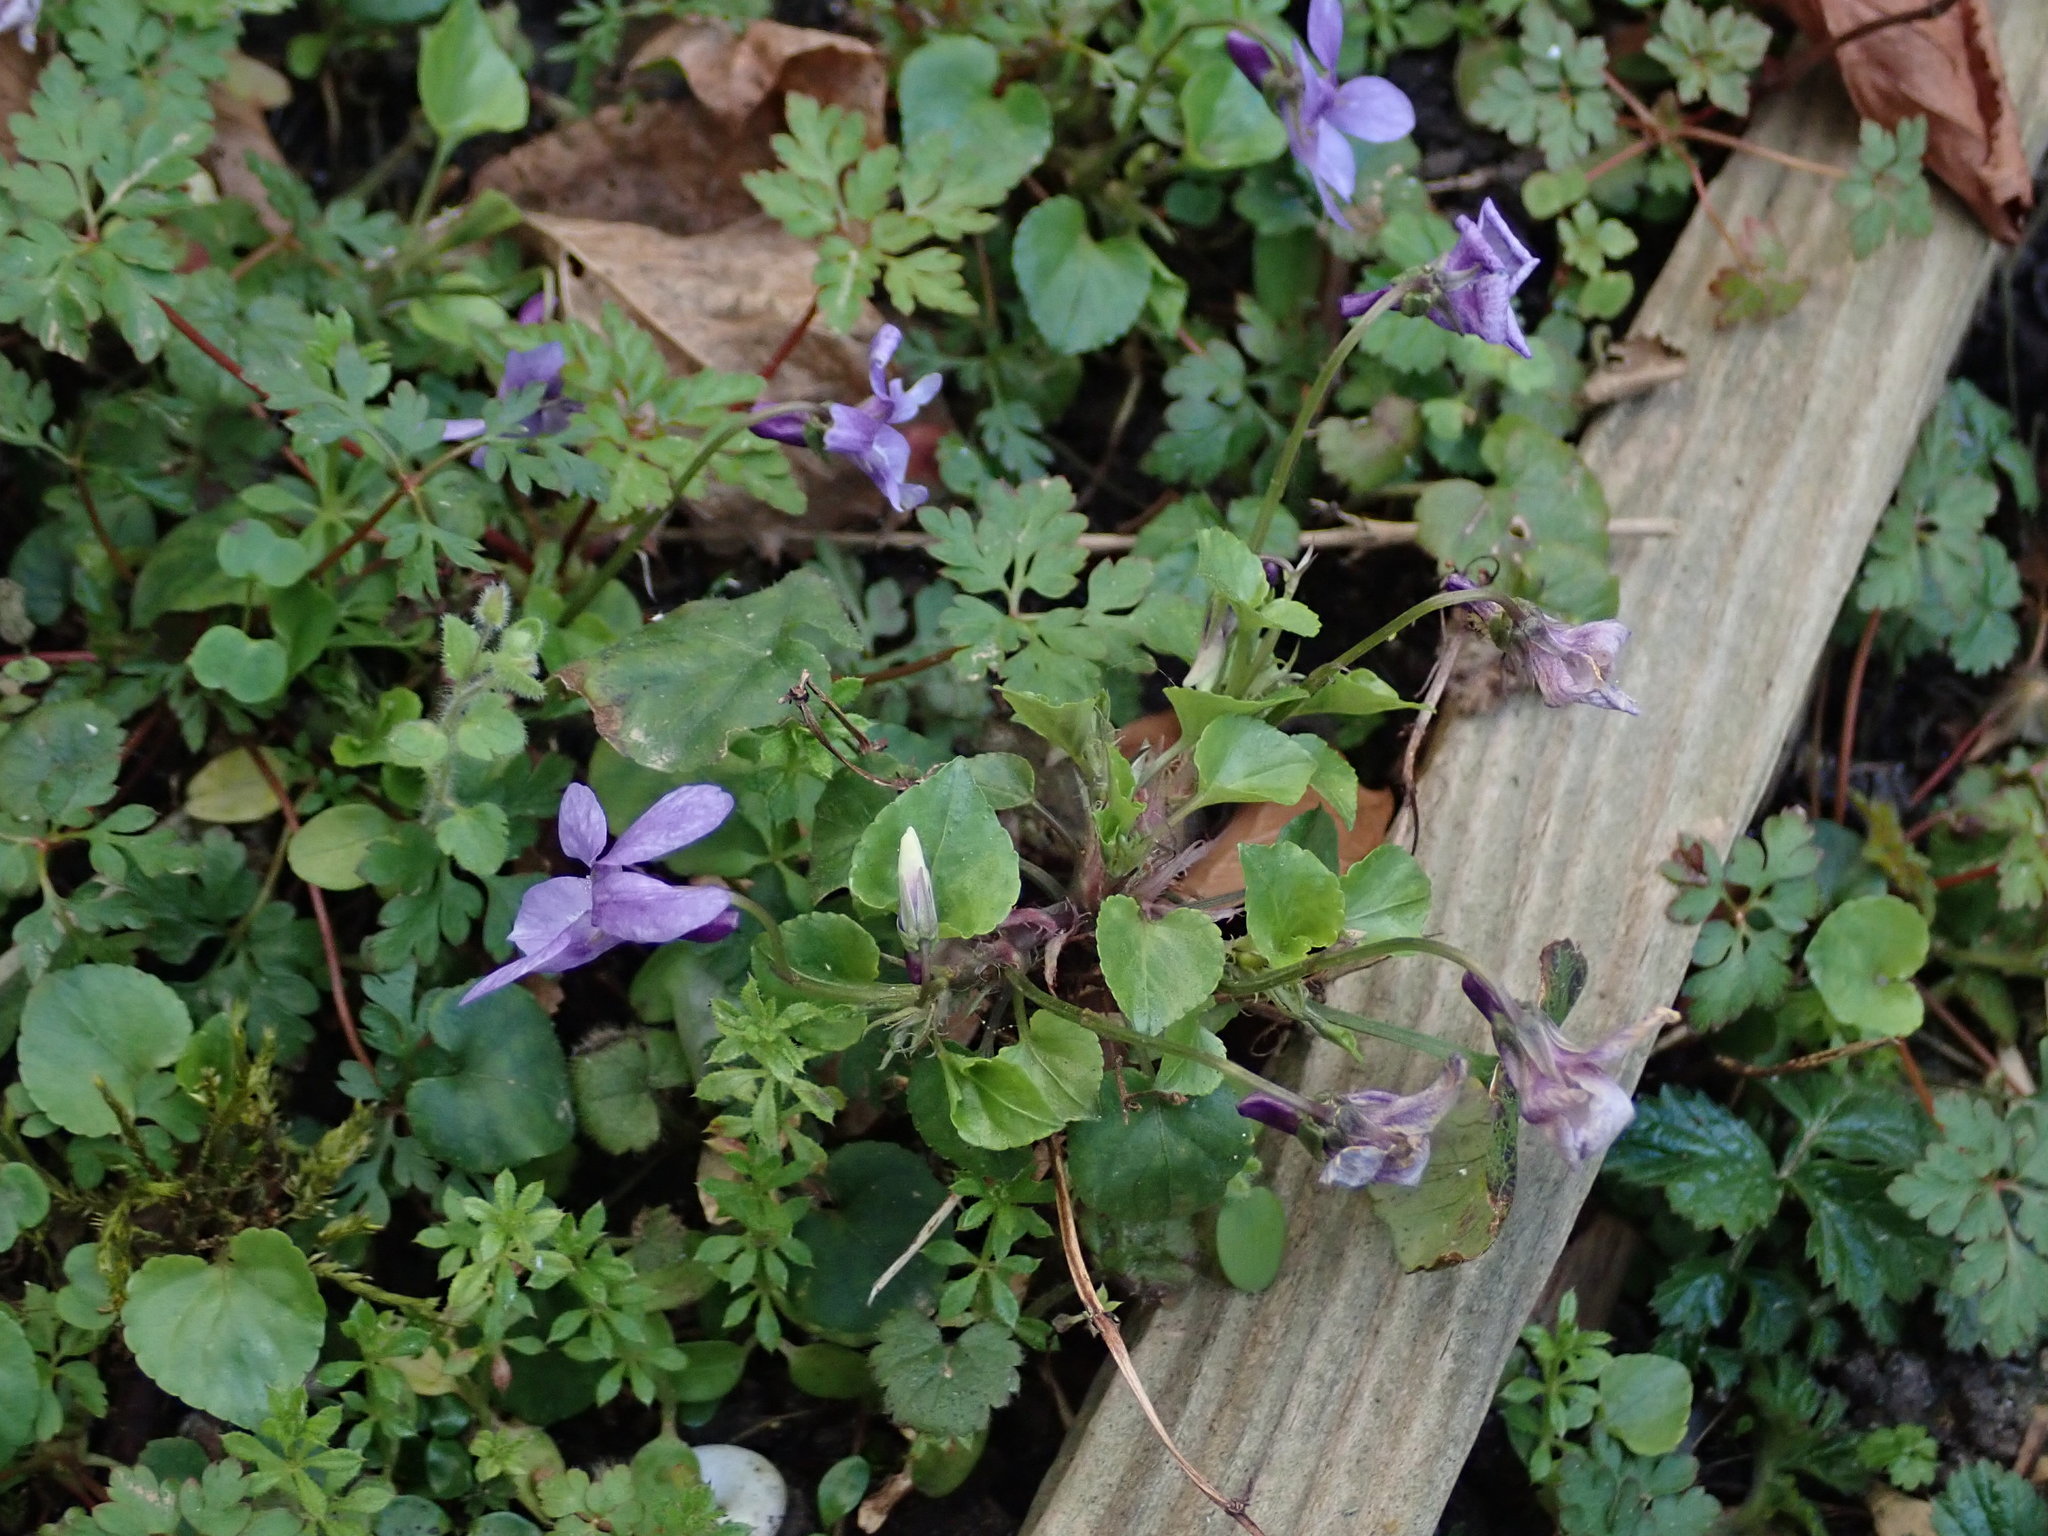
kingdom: Plantae
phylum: Tracheophyta
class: Magnoliopsida
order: Malpighiales
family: Violaceae
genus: Viola
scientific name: Viola reichenbachiana
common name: Early dog-violet
